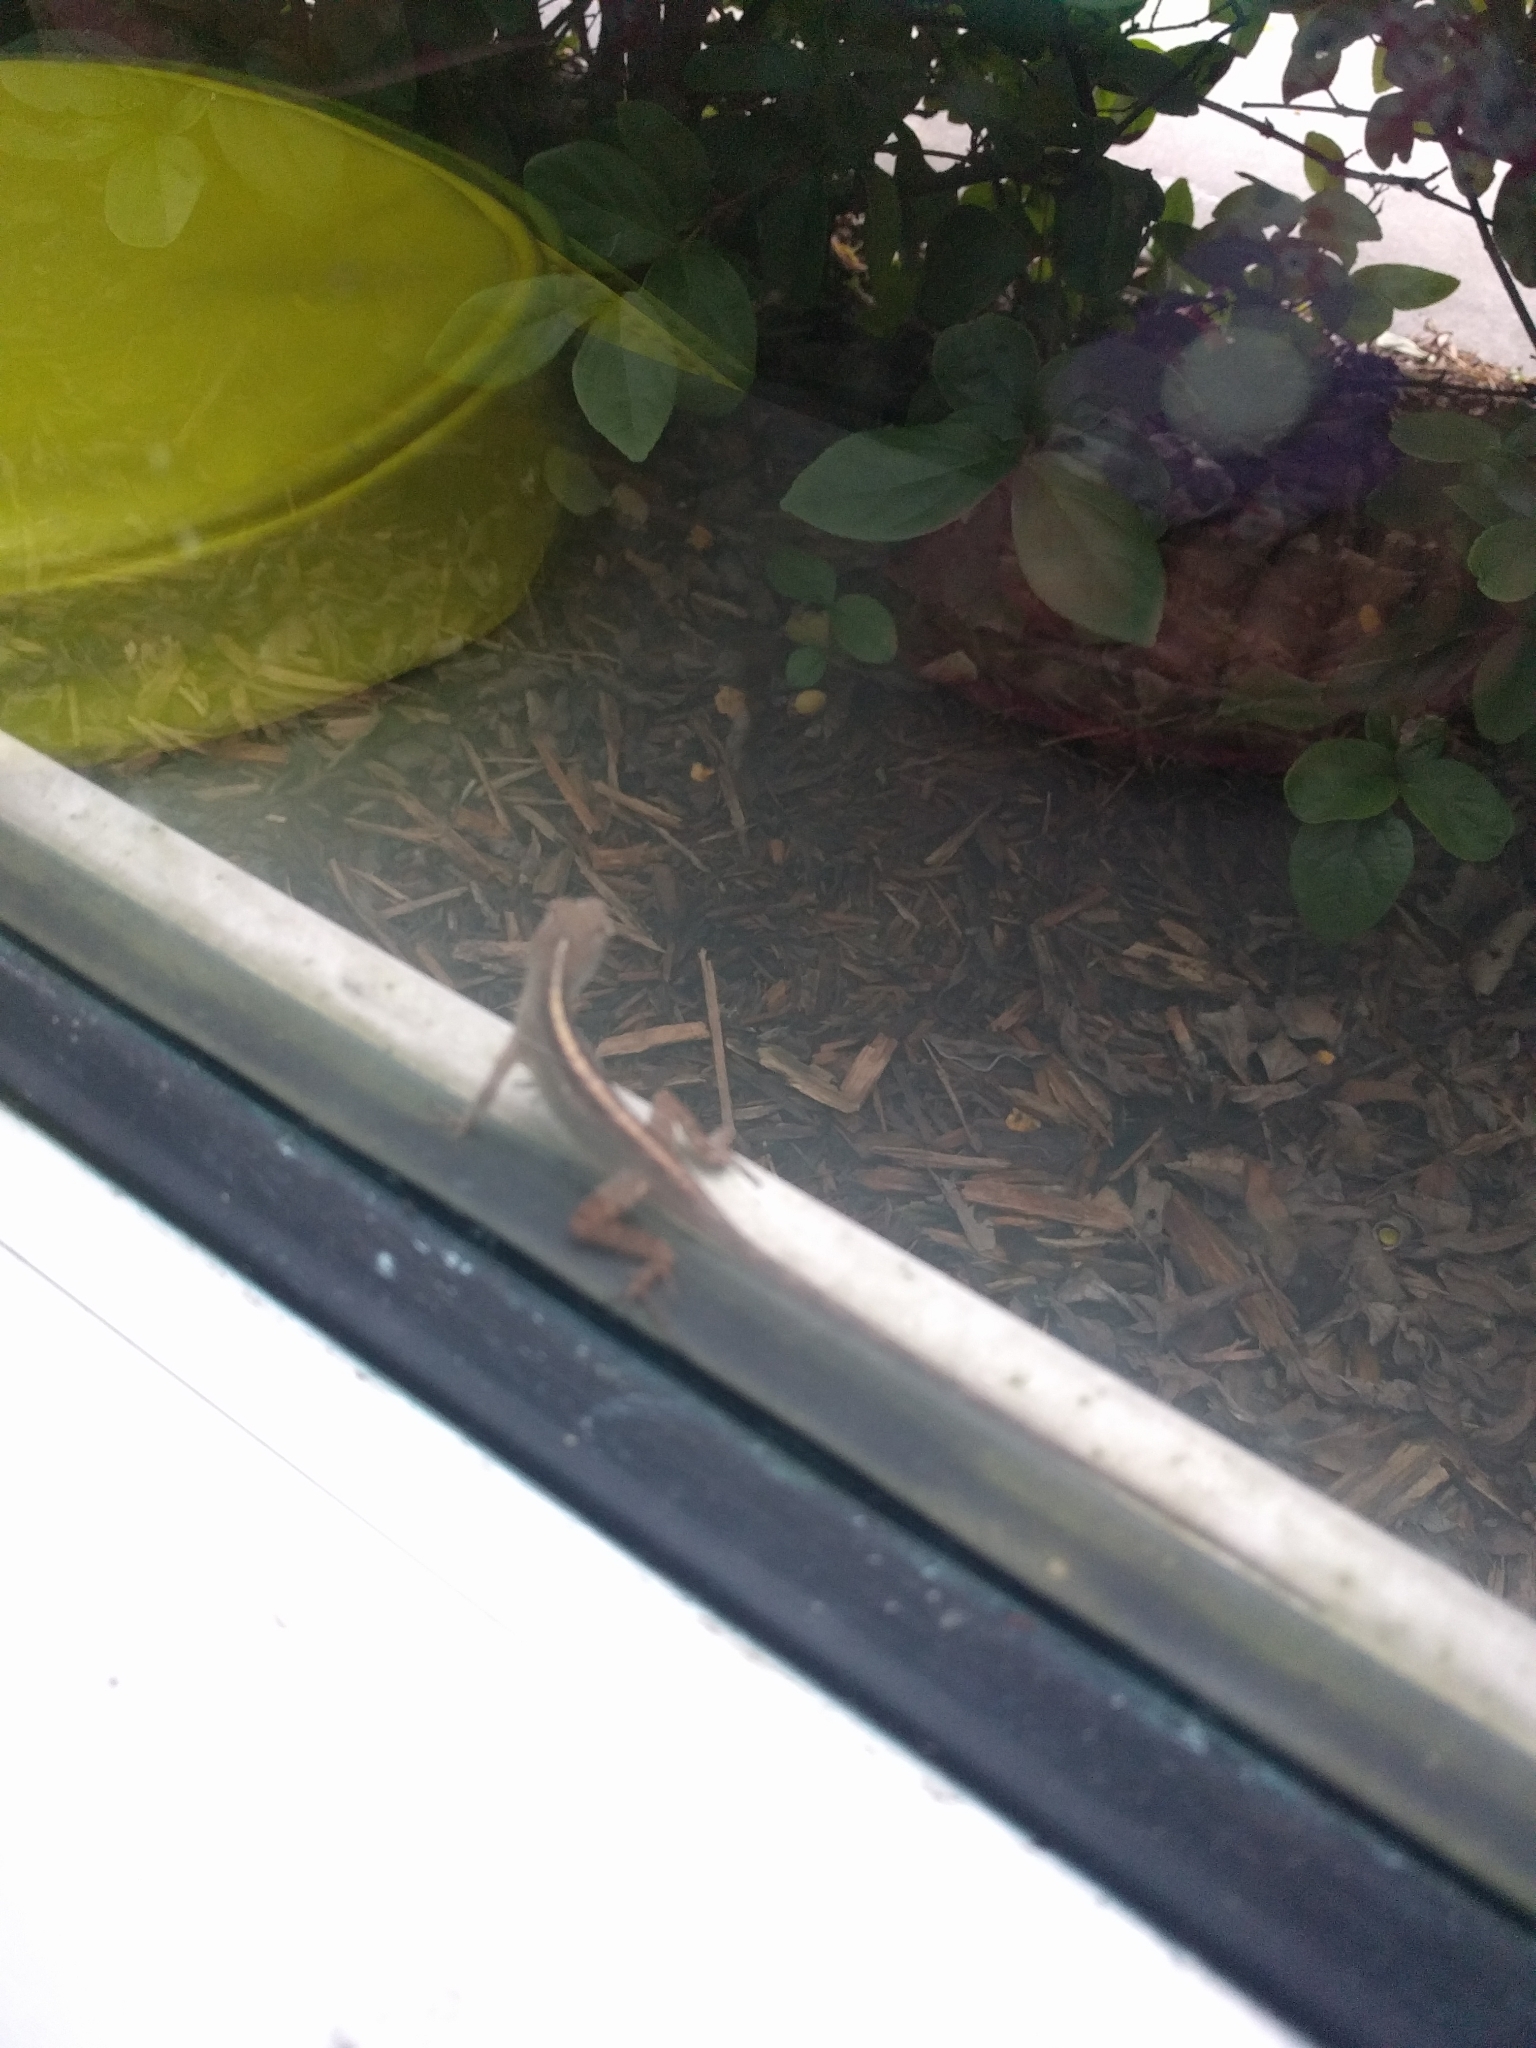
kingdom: Animalia
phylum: Chordata
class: Squamata
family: Dactyloidae
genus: Anolis
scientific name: Anolis sagrei
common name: Brown anole
